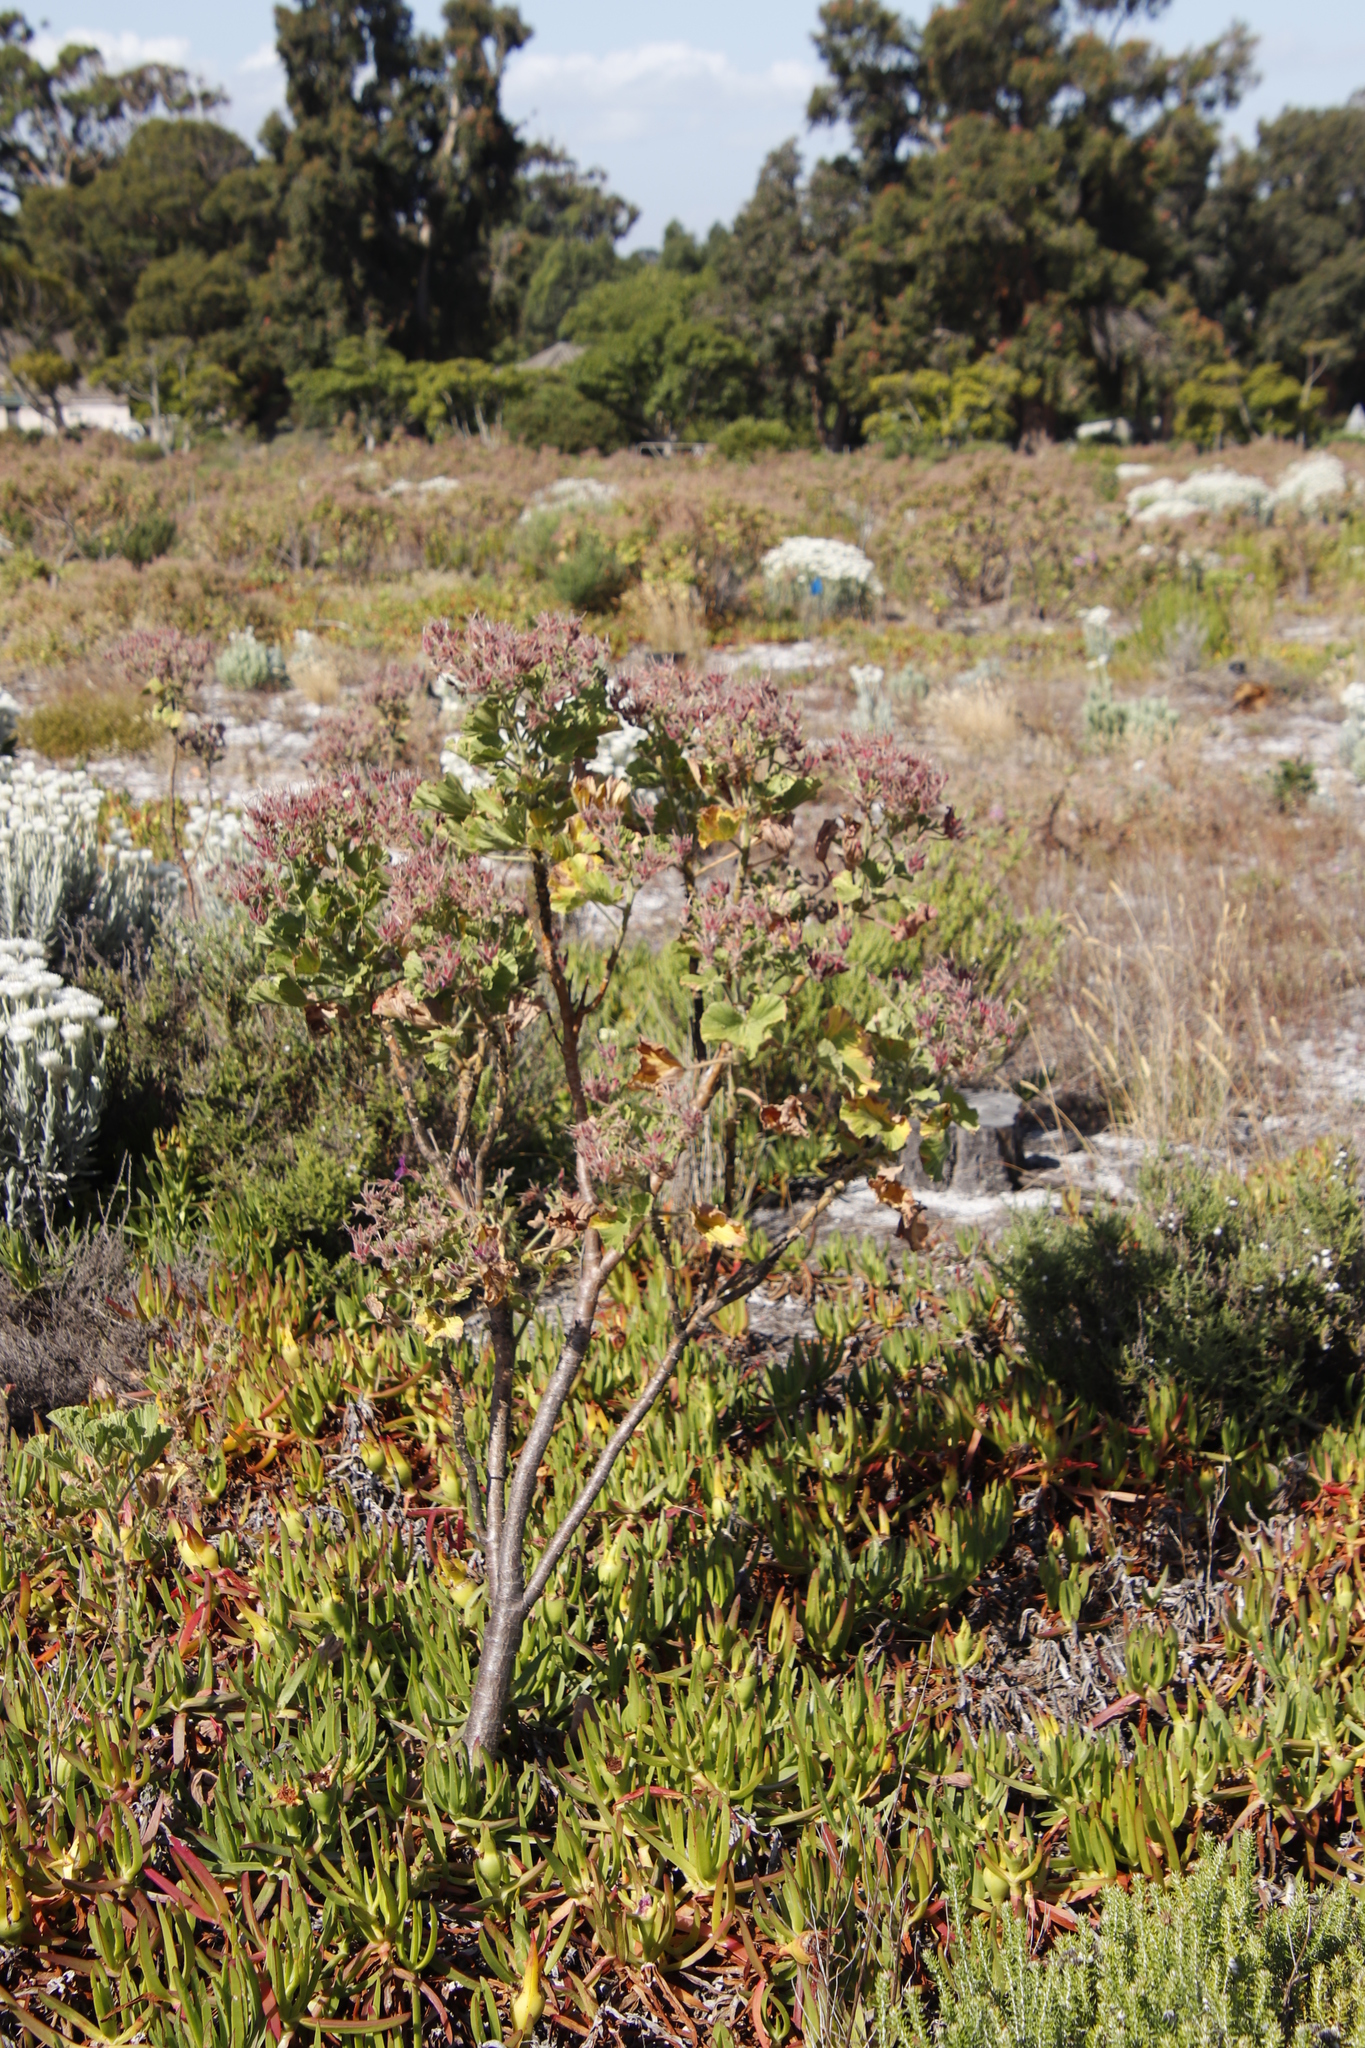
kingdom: Plantae
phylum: Tracheophyta
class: Magnoliopsida
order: Geraniales
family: Geraniaceae
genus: Pelargonium
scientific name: Pelargonium cucullatum
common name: Tree pelargonium
